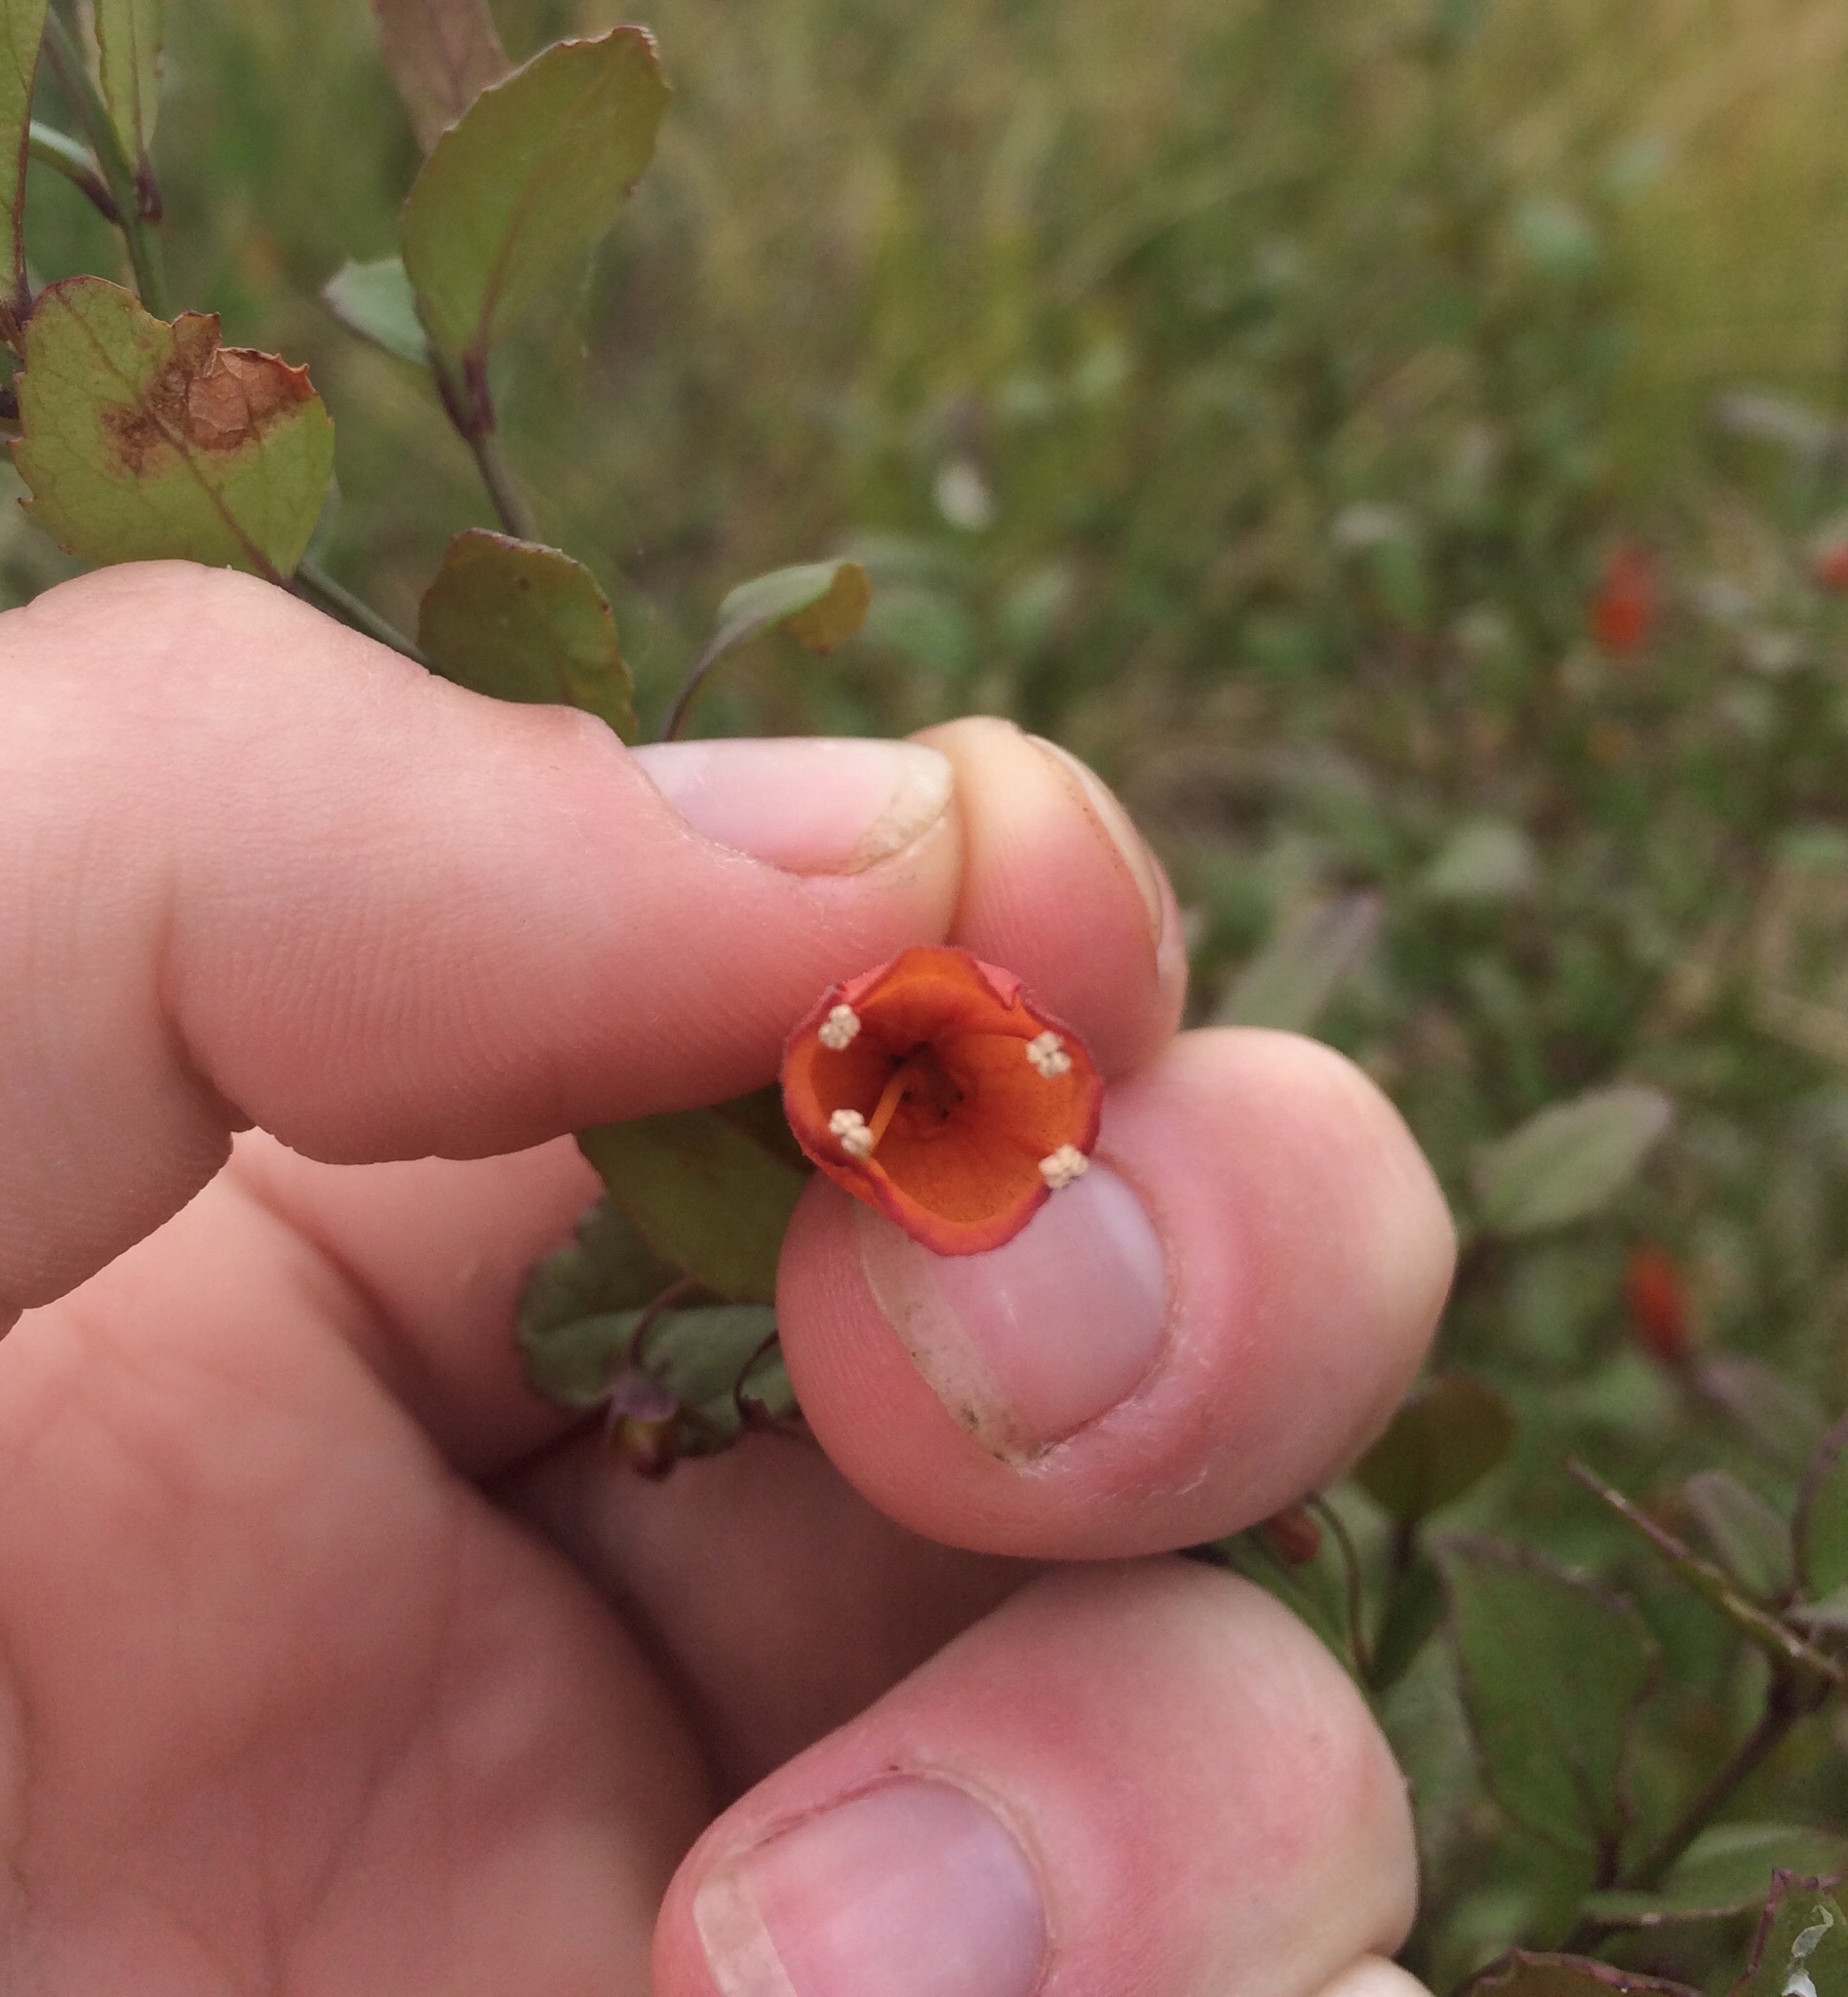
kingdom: Plantae
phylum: Tracheophyta
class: Magnoliopsida
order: Lamiales
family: Stilbaceae
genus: Halleria
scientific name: Halleria elliptica
